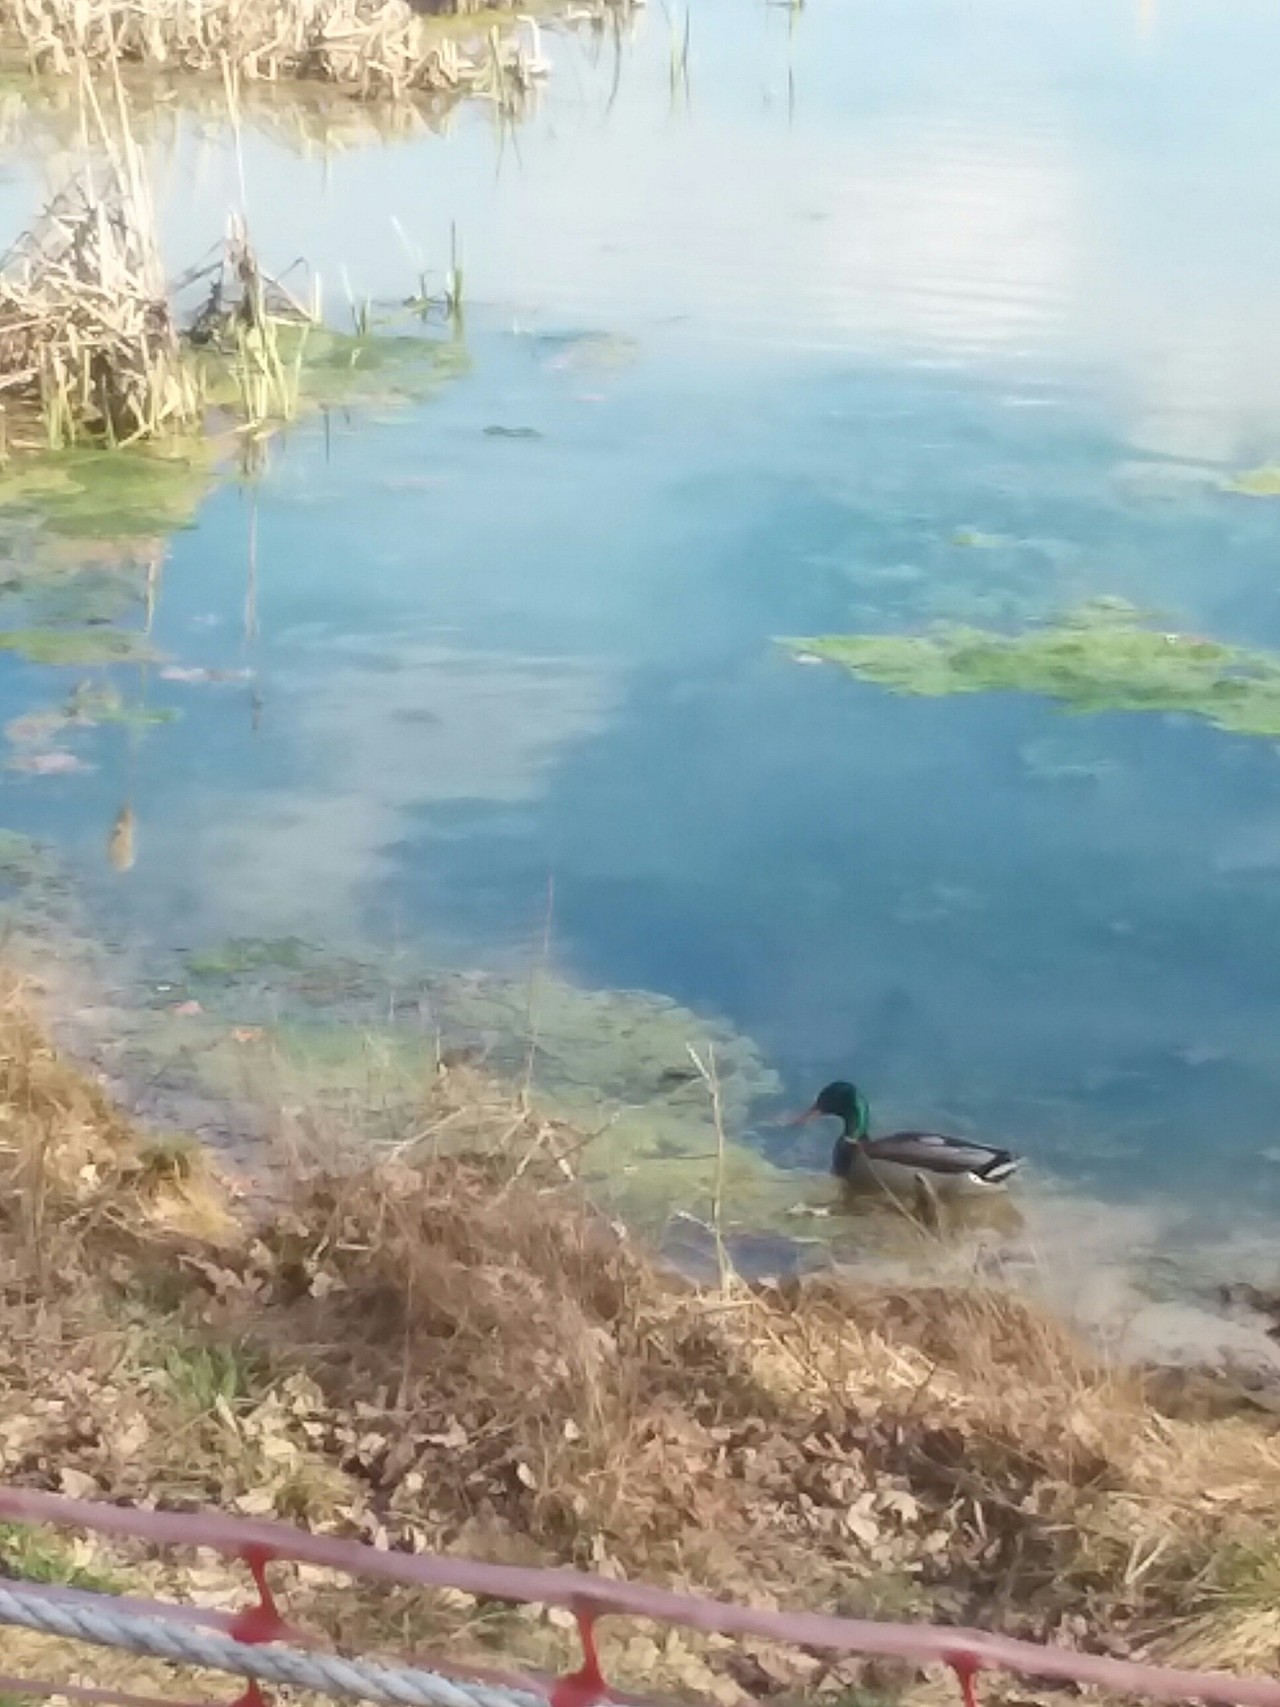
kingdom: Animalia
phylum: Chordata
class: Aves
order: Anseriformes
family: Anatidae
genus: Anas
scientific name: Anas platyrhynchos
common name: Mallard
